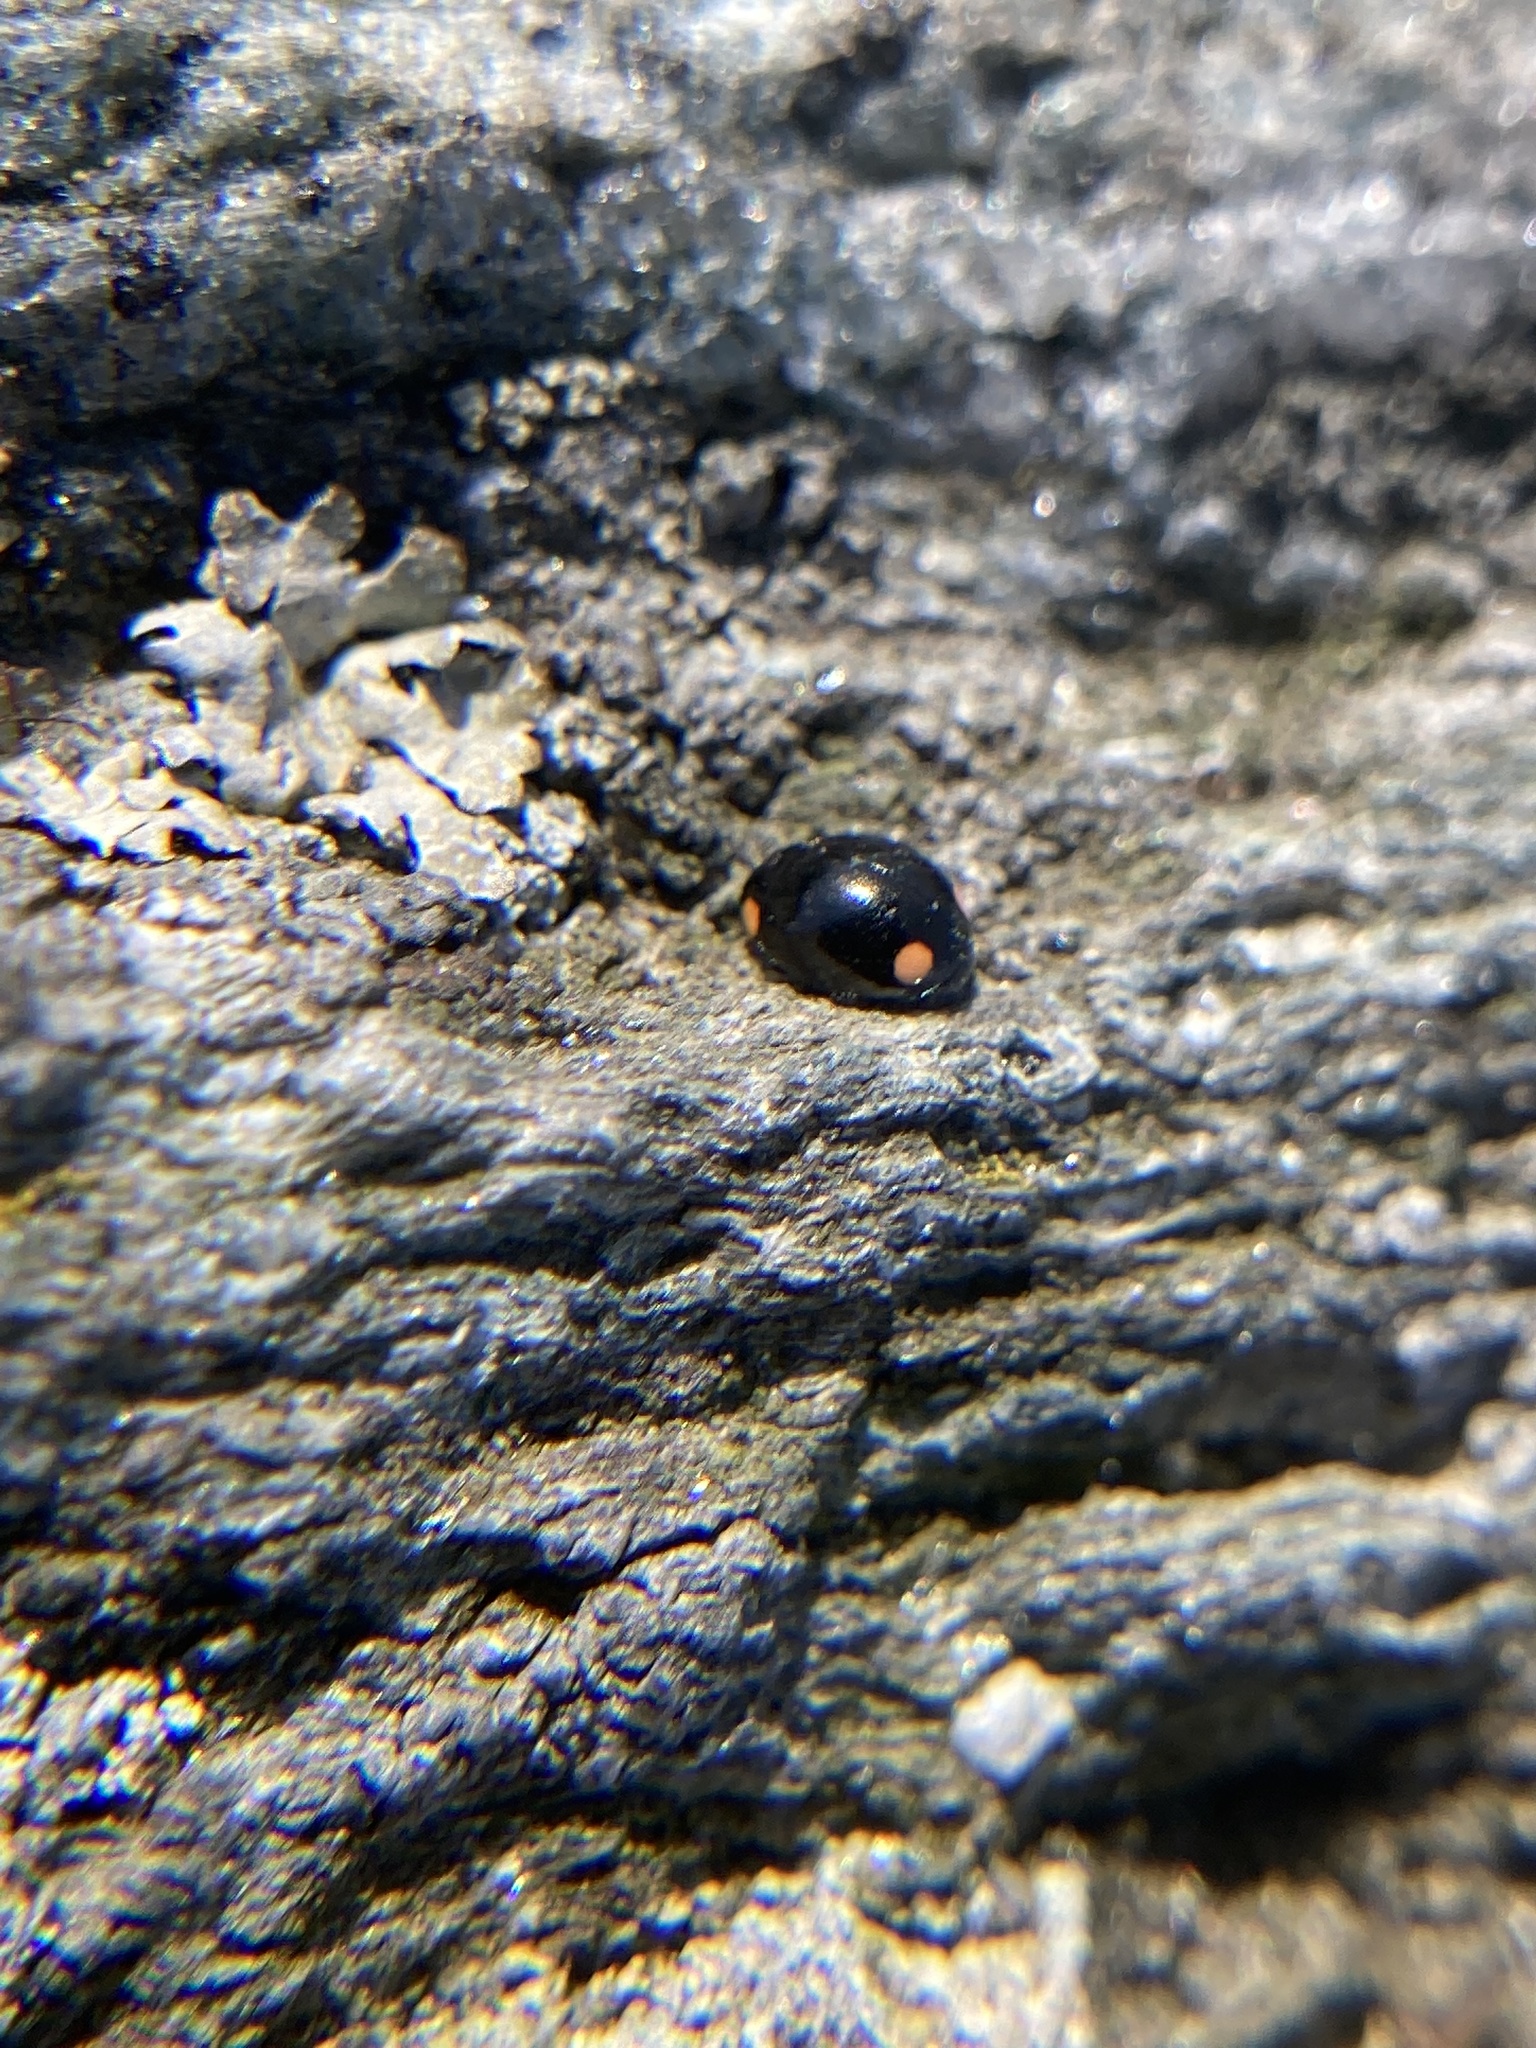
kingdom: Animalia
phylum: Arthropoda
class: Insecta
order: Coleoptera
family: Coccinellidae
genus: Hyperaspis
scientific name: Hyperaspis bigeminata
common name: Bigeminate sigil lady beetle
